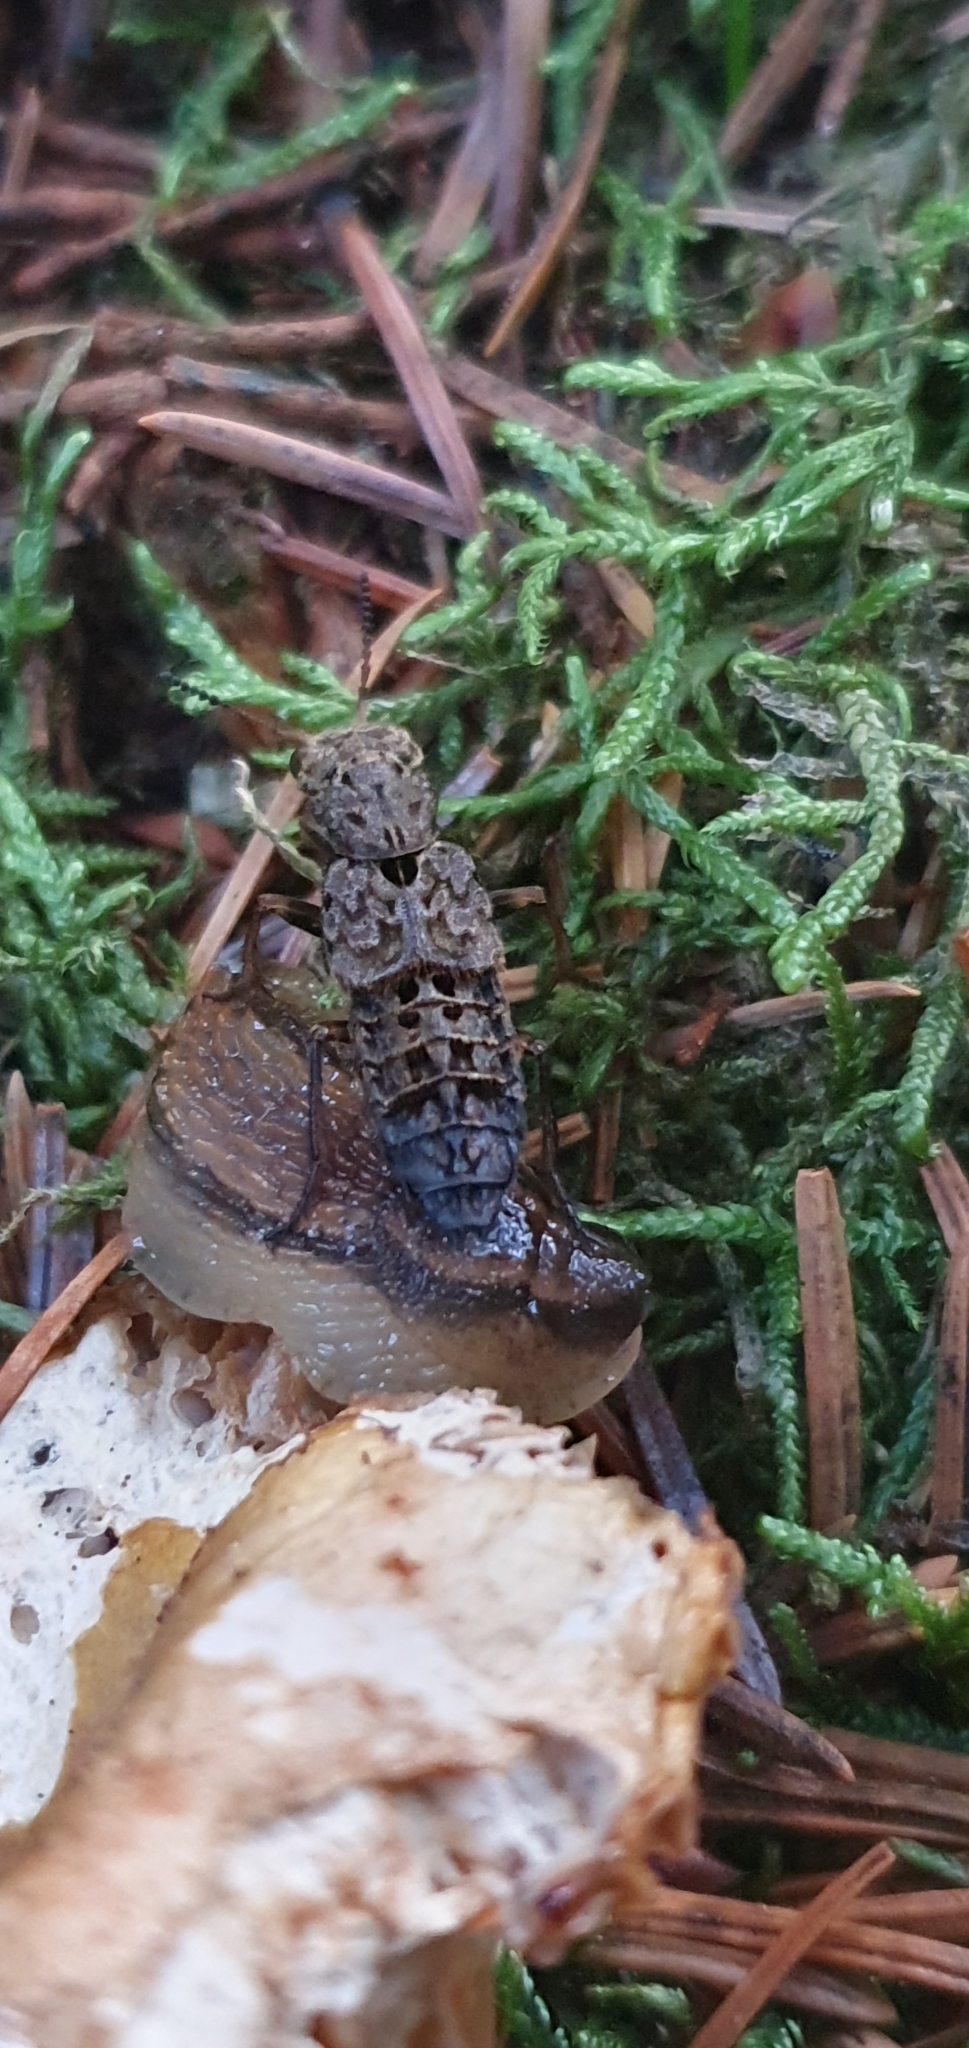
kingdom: Animalia
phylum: Arthropoda
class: Insecta
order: Coleoptera
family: Staphylinidae
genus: Ontholestes
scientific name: Ontholestes tessellatus
